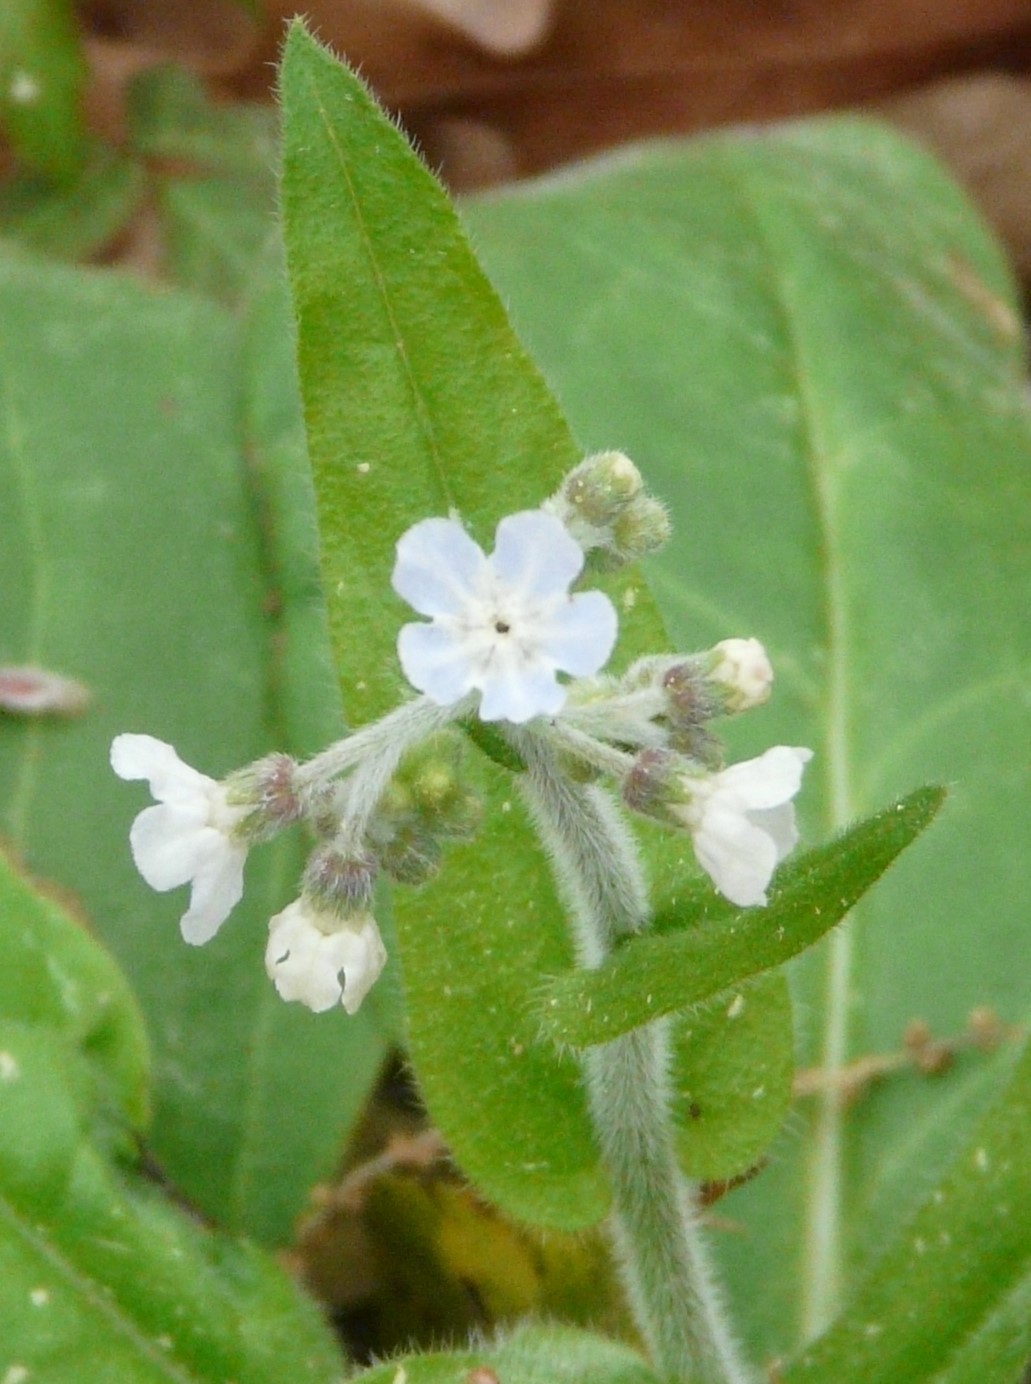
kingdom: Plantae
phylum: Tracheophyta
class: Magnoliopsida
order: Boraginales
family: Boraginaceae
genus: Andersonglossum
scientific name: Andersonglossum virginianum
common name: Wild comfrey
